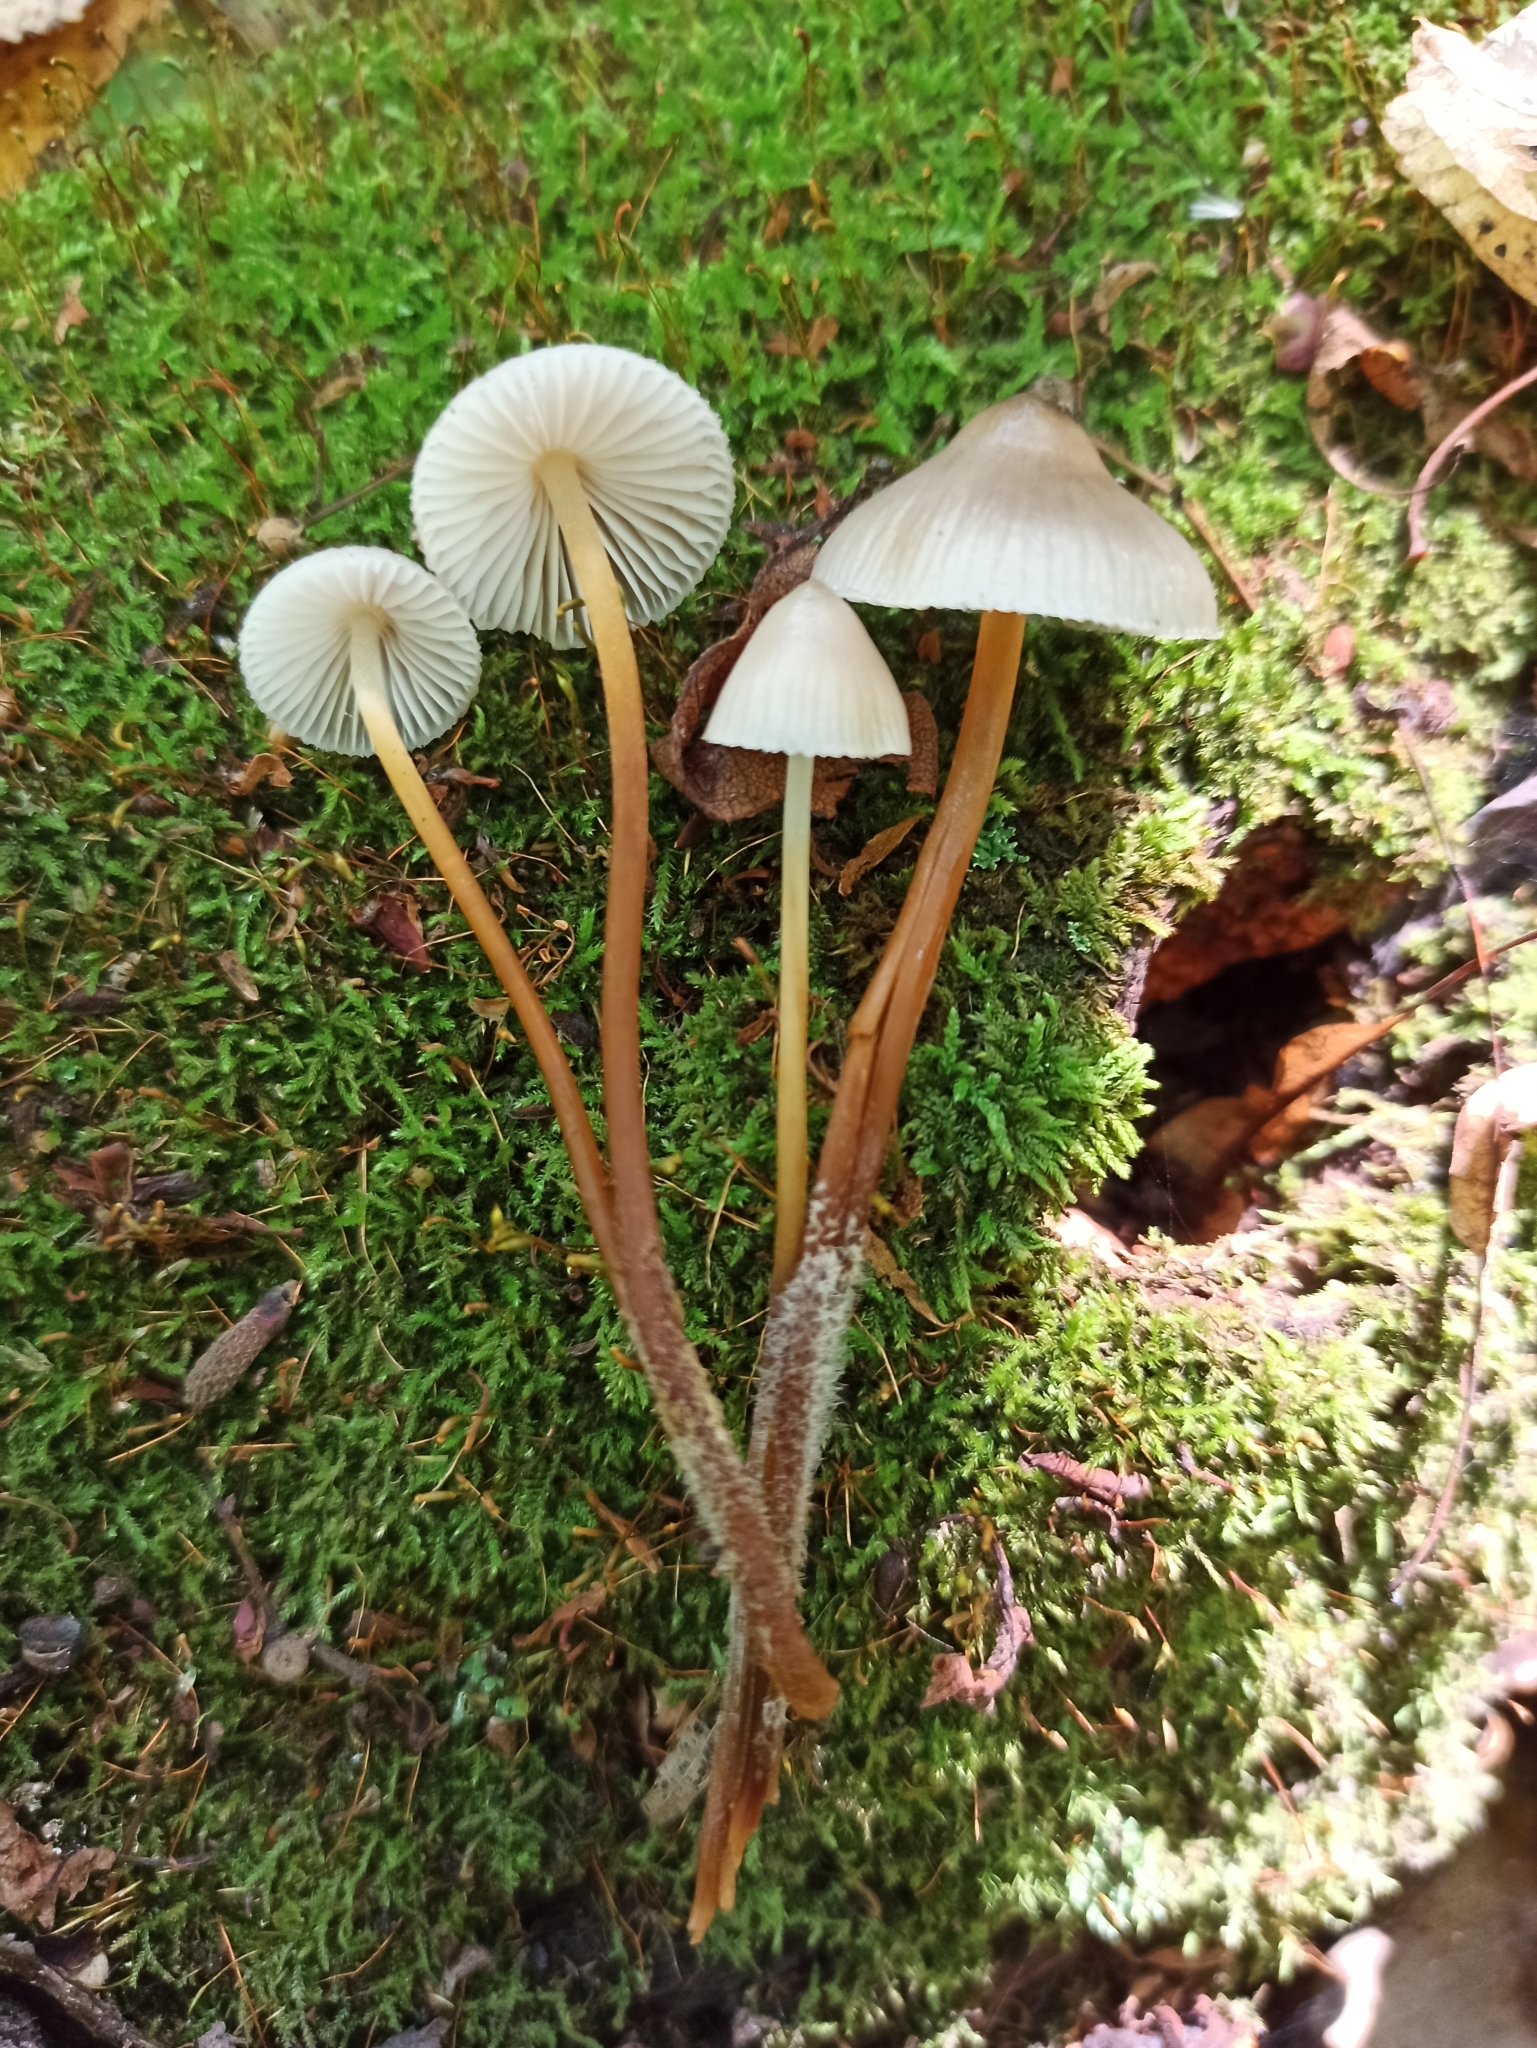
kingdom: Fungi
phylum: Basidiomycota
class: Agaricomycetes
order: Agaricales
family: Mycenaceae
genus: Mycena
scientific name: Mycena inclinata
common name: Clustered bonnet
